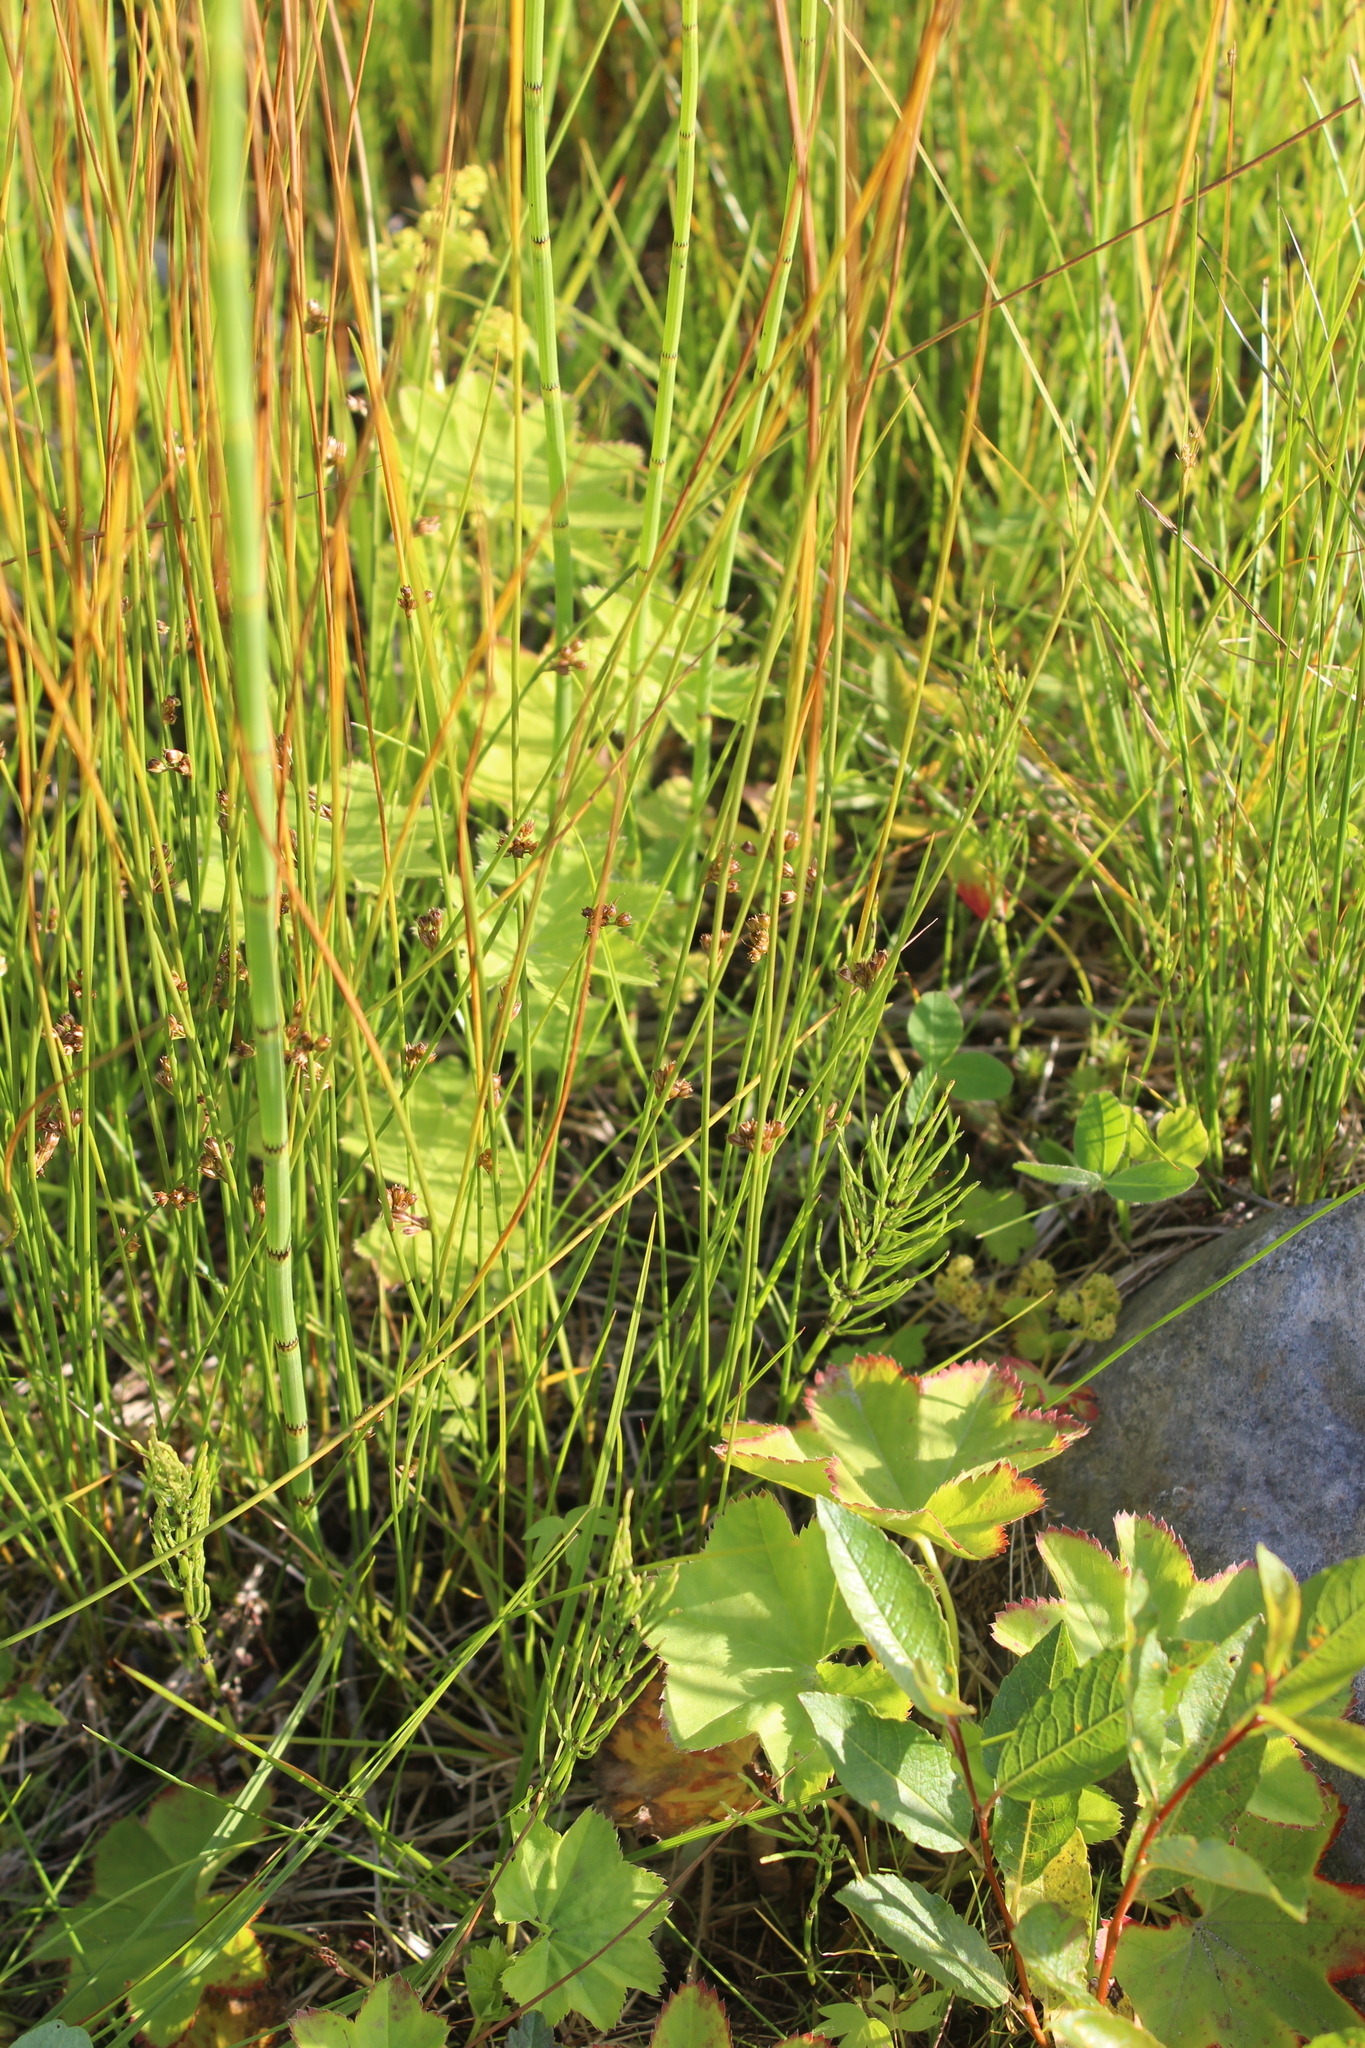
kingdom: Plantae
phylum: Tracheophyta
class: Liliopsida
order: Poales
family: Juncaceae
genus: Juncus
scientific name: Juncus filiformis
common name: Thread rush
